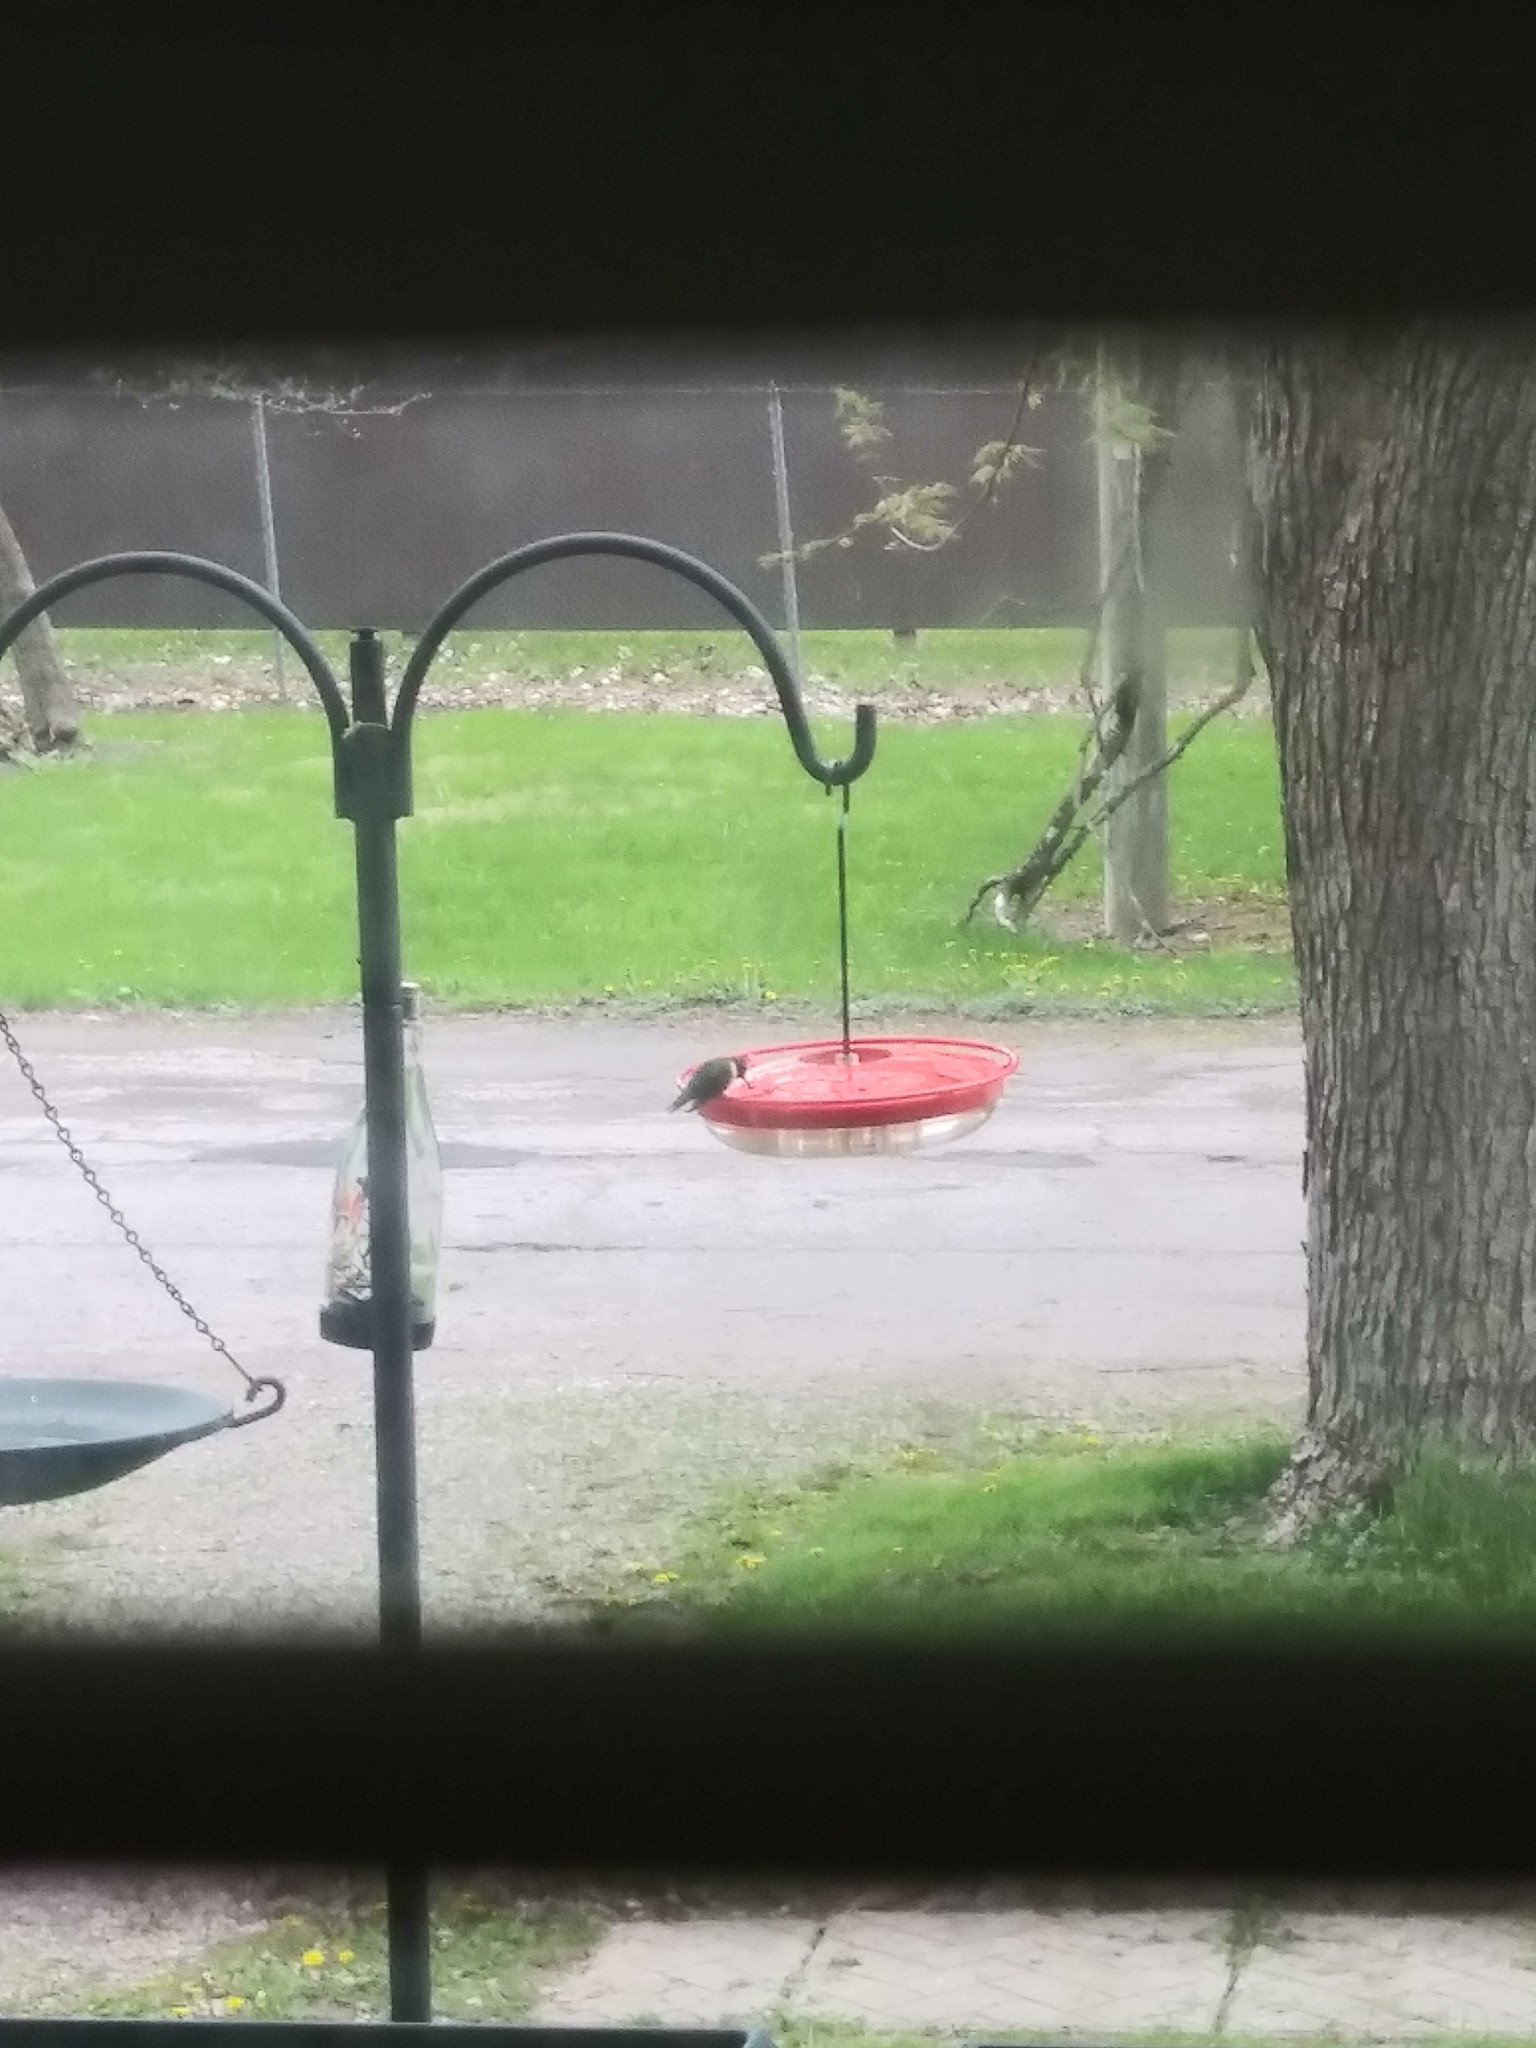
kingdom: Animalia
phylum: Chordata
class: Aves
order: Apodiformes
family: Trochilidae
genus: Archilochus
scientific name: Archilochus colubris
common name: Ruby-throated hummingbird
